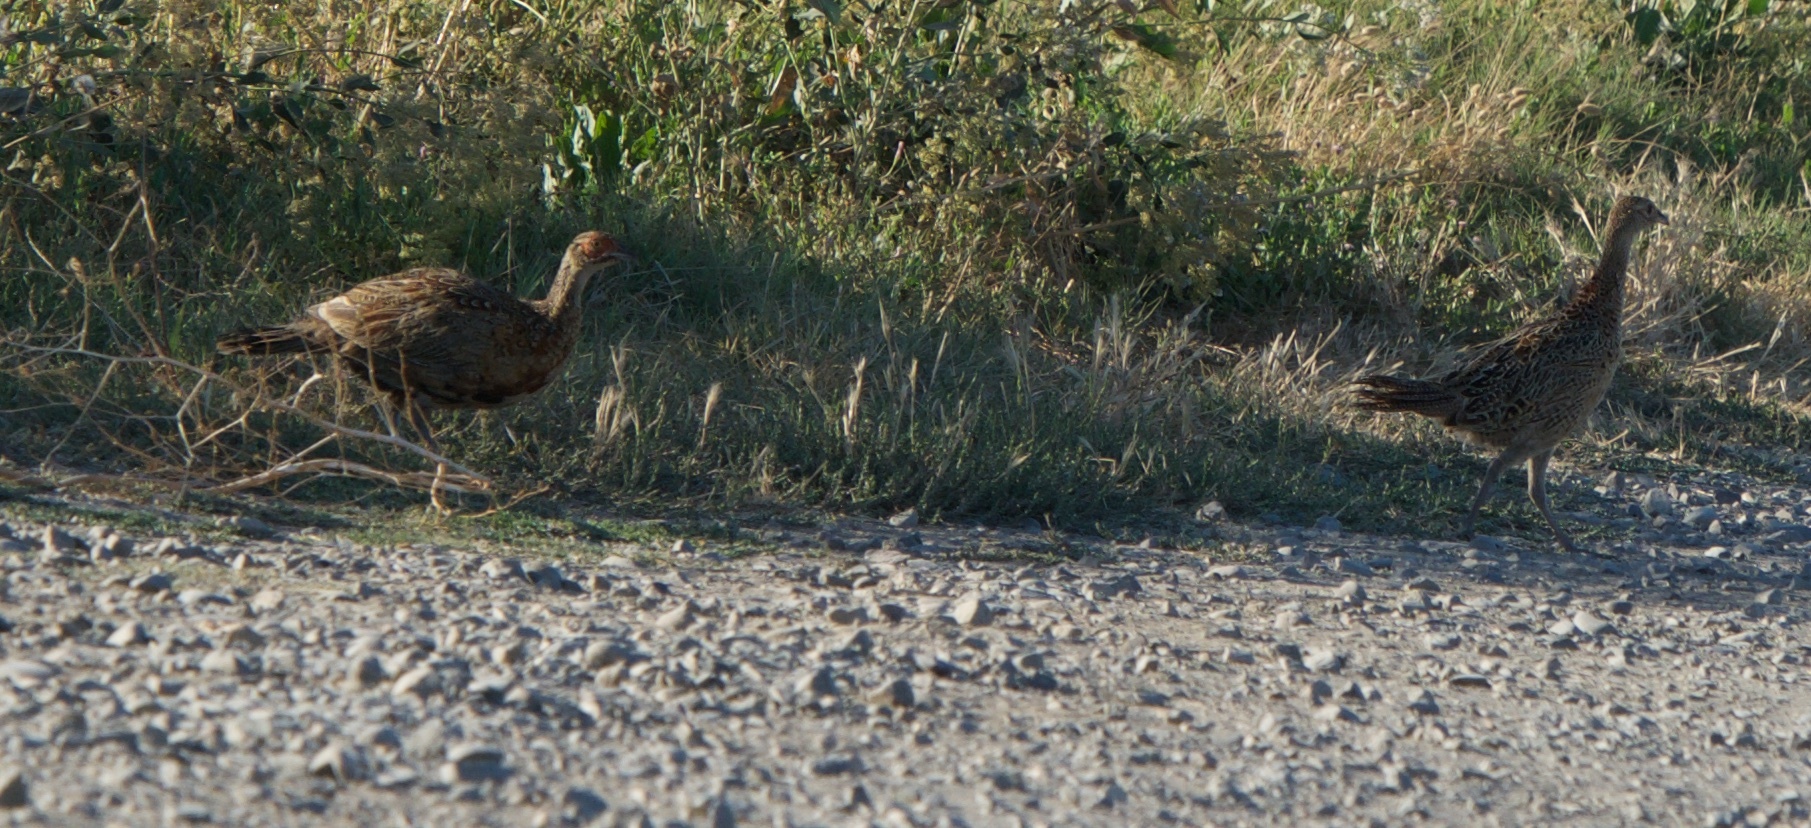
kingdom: Animalia
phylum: Chordata
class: Aves
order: Galliformes
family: Phasianidae
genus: Phasianus
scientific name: Phasianus colchicus
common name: Common pheasant
